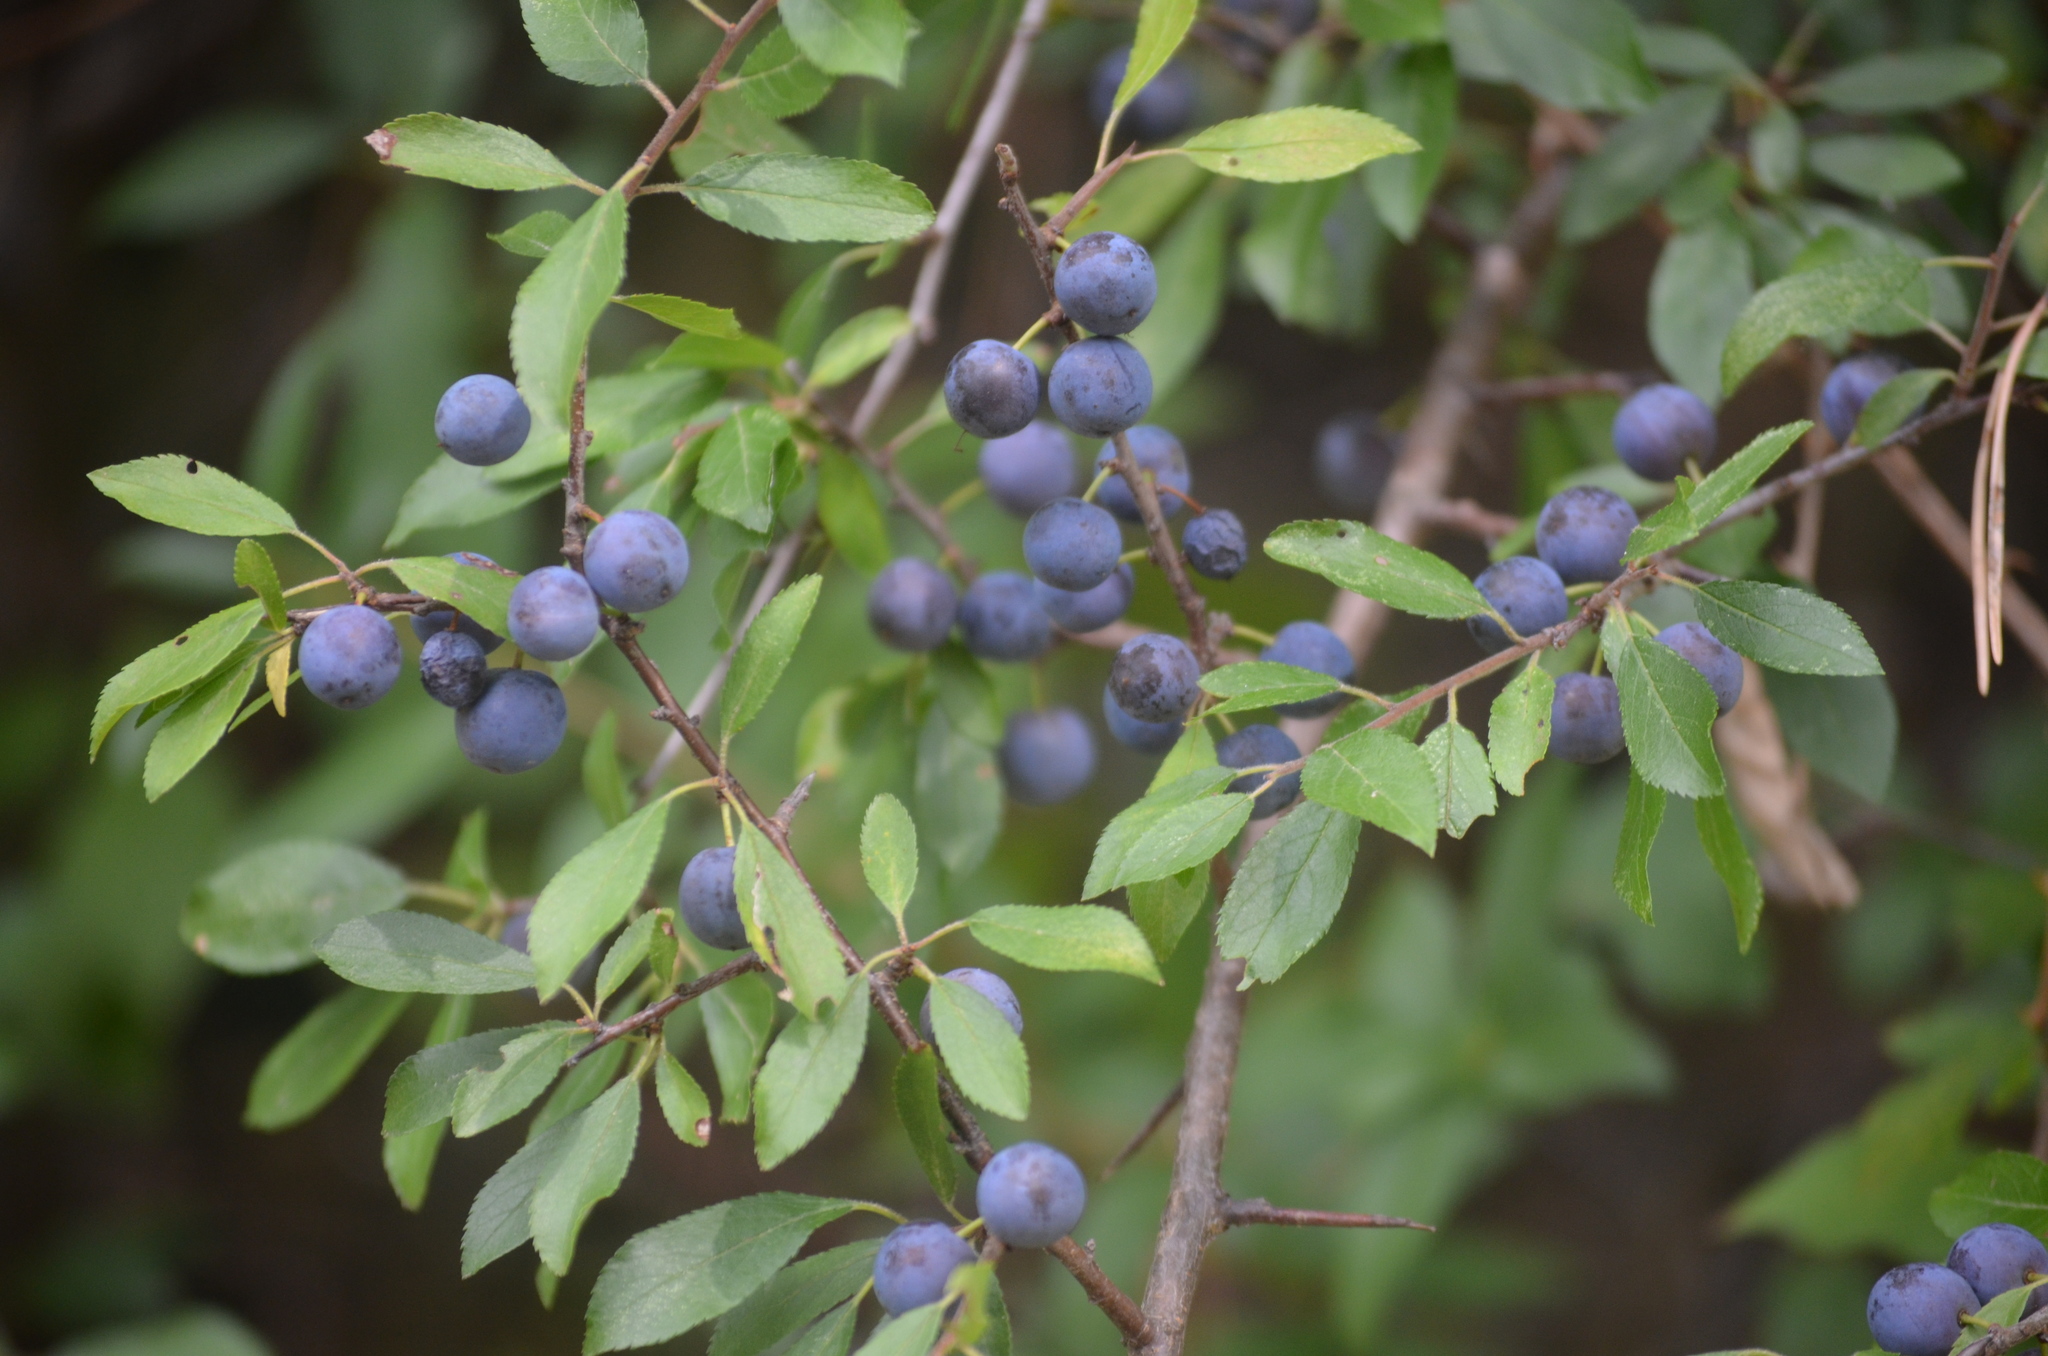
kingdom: Plantae
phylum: Tracheophyta
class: Magnoliopsida
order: Rosales
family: Rosaceae
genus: Prunus
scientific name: Prunus spinosa
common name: Blackthorn
